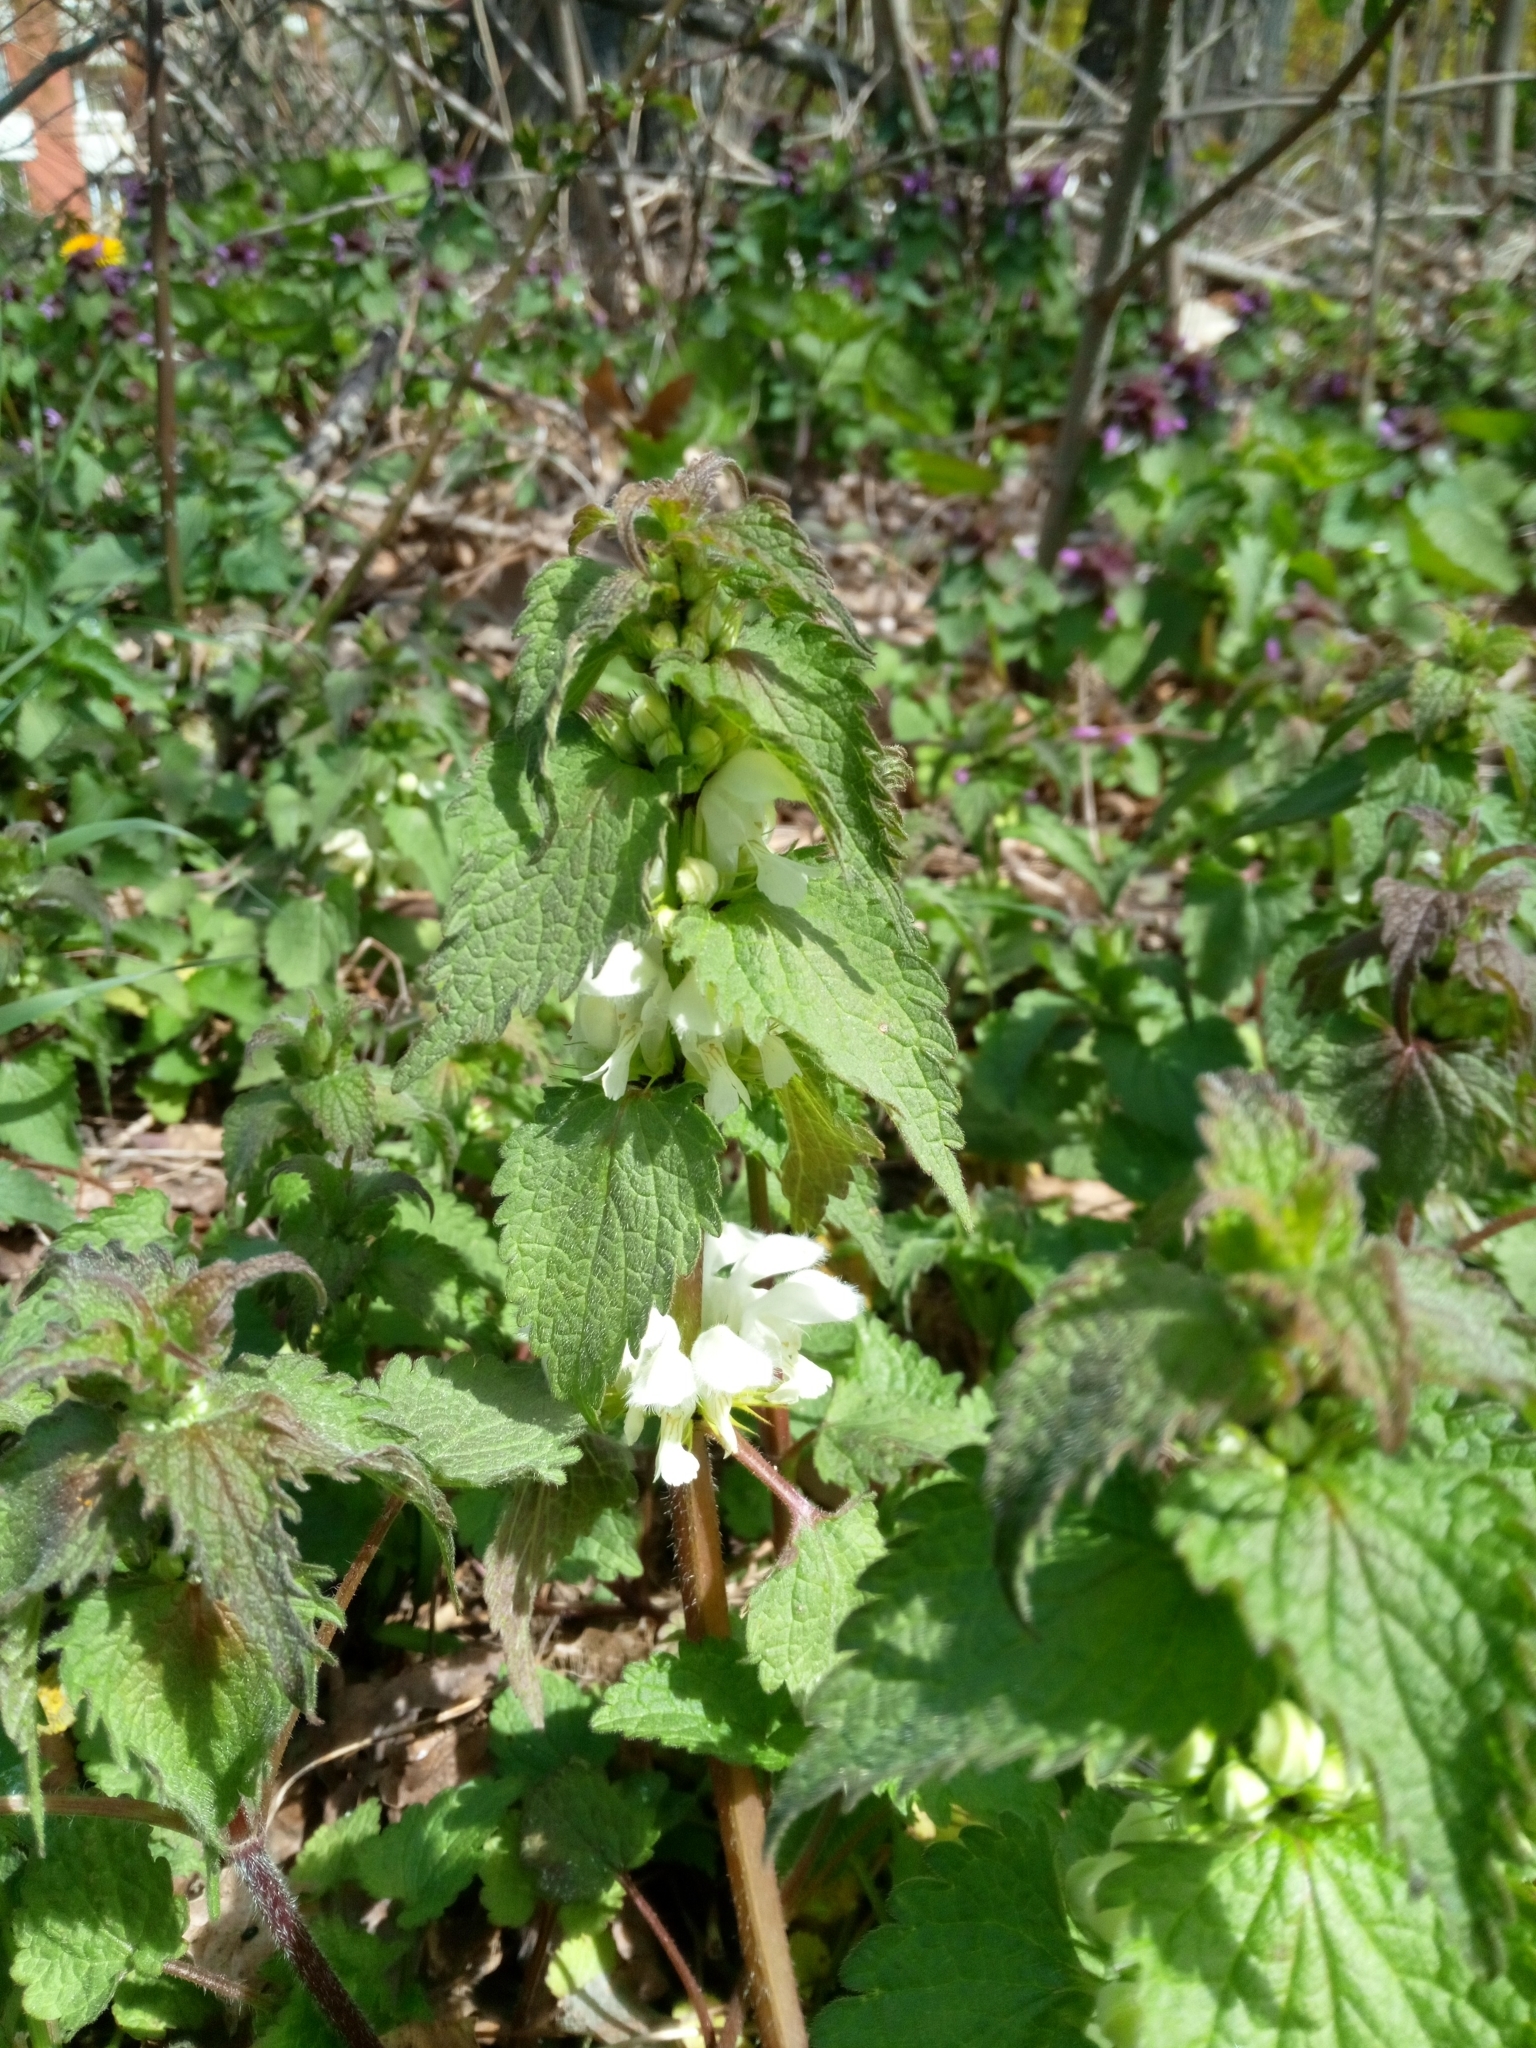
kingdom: Plantae
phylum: Tracheophyta
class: Magnoliopsida
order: Lamiales
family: Lamiaceae
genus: Lamium
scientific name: Lamium album
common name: White dead-nettle
